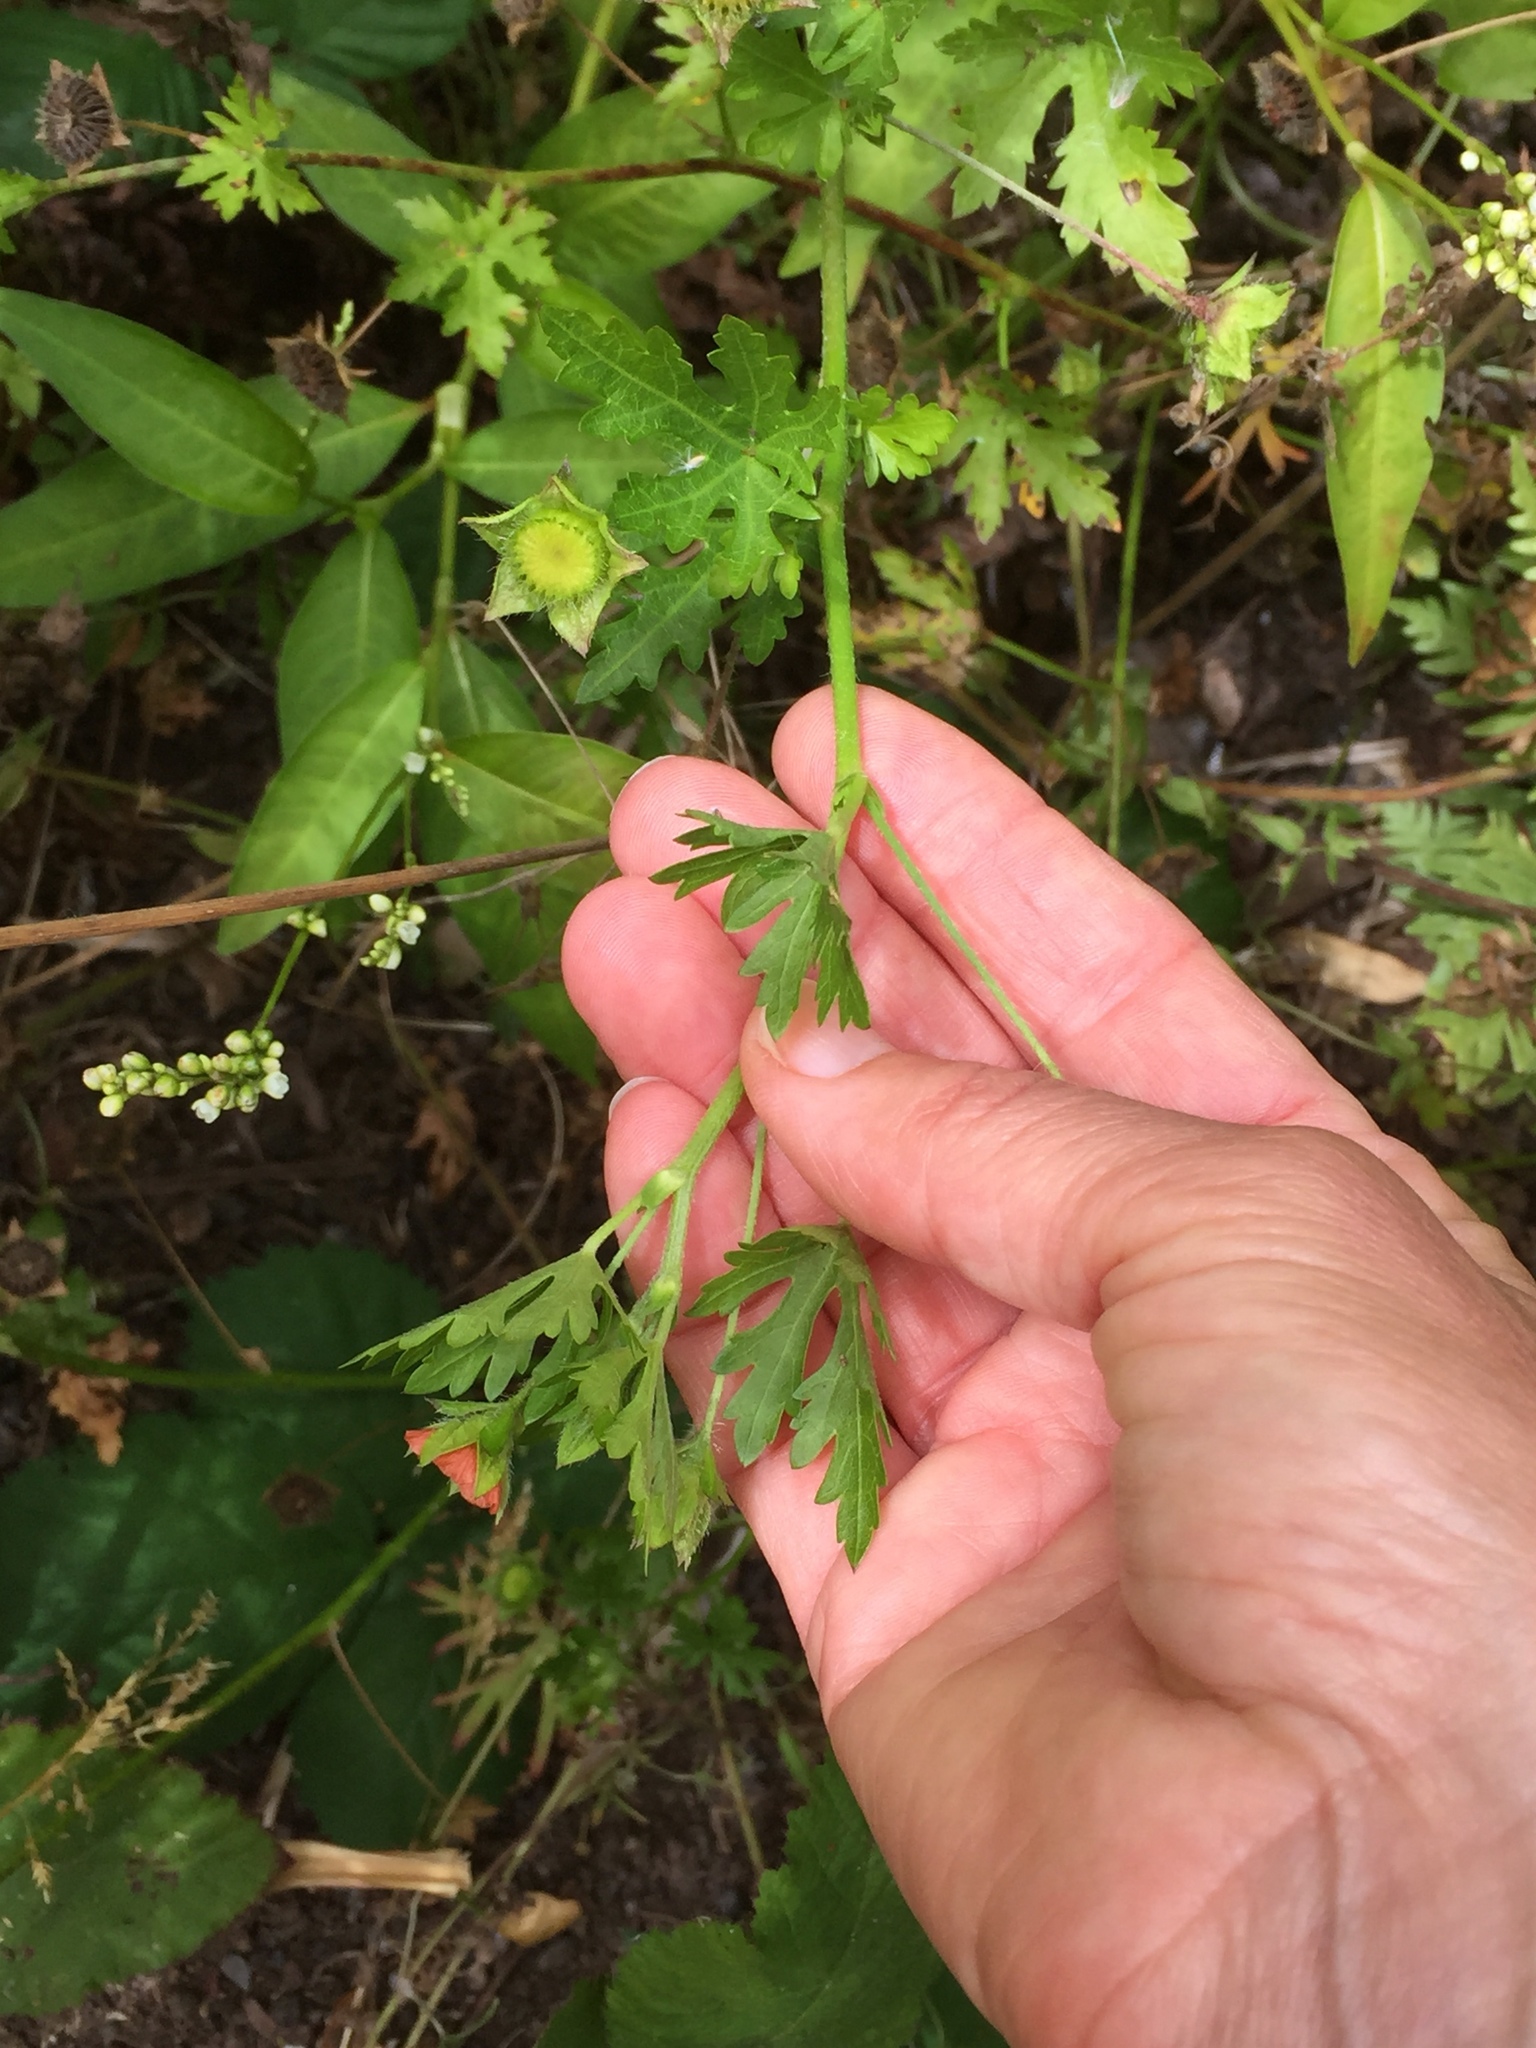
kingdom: Plantae
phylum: Tracheophyta
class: Magnoliopsida
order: Malvales
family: Malvaceae
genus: Modiola
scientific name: Modiola caroliniana
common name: Carolina bristlemallow
